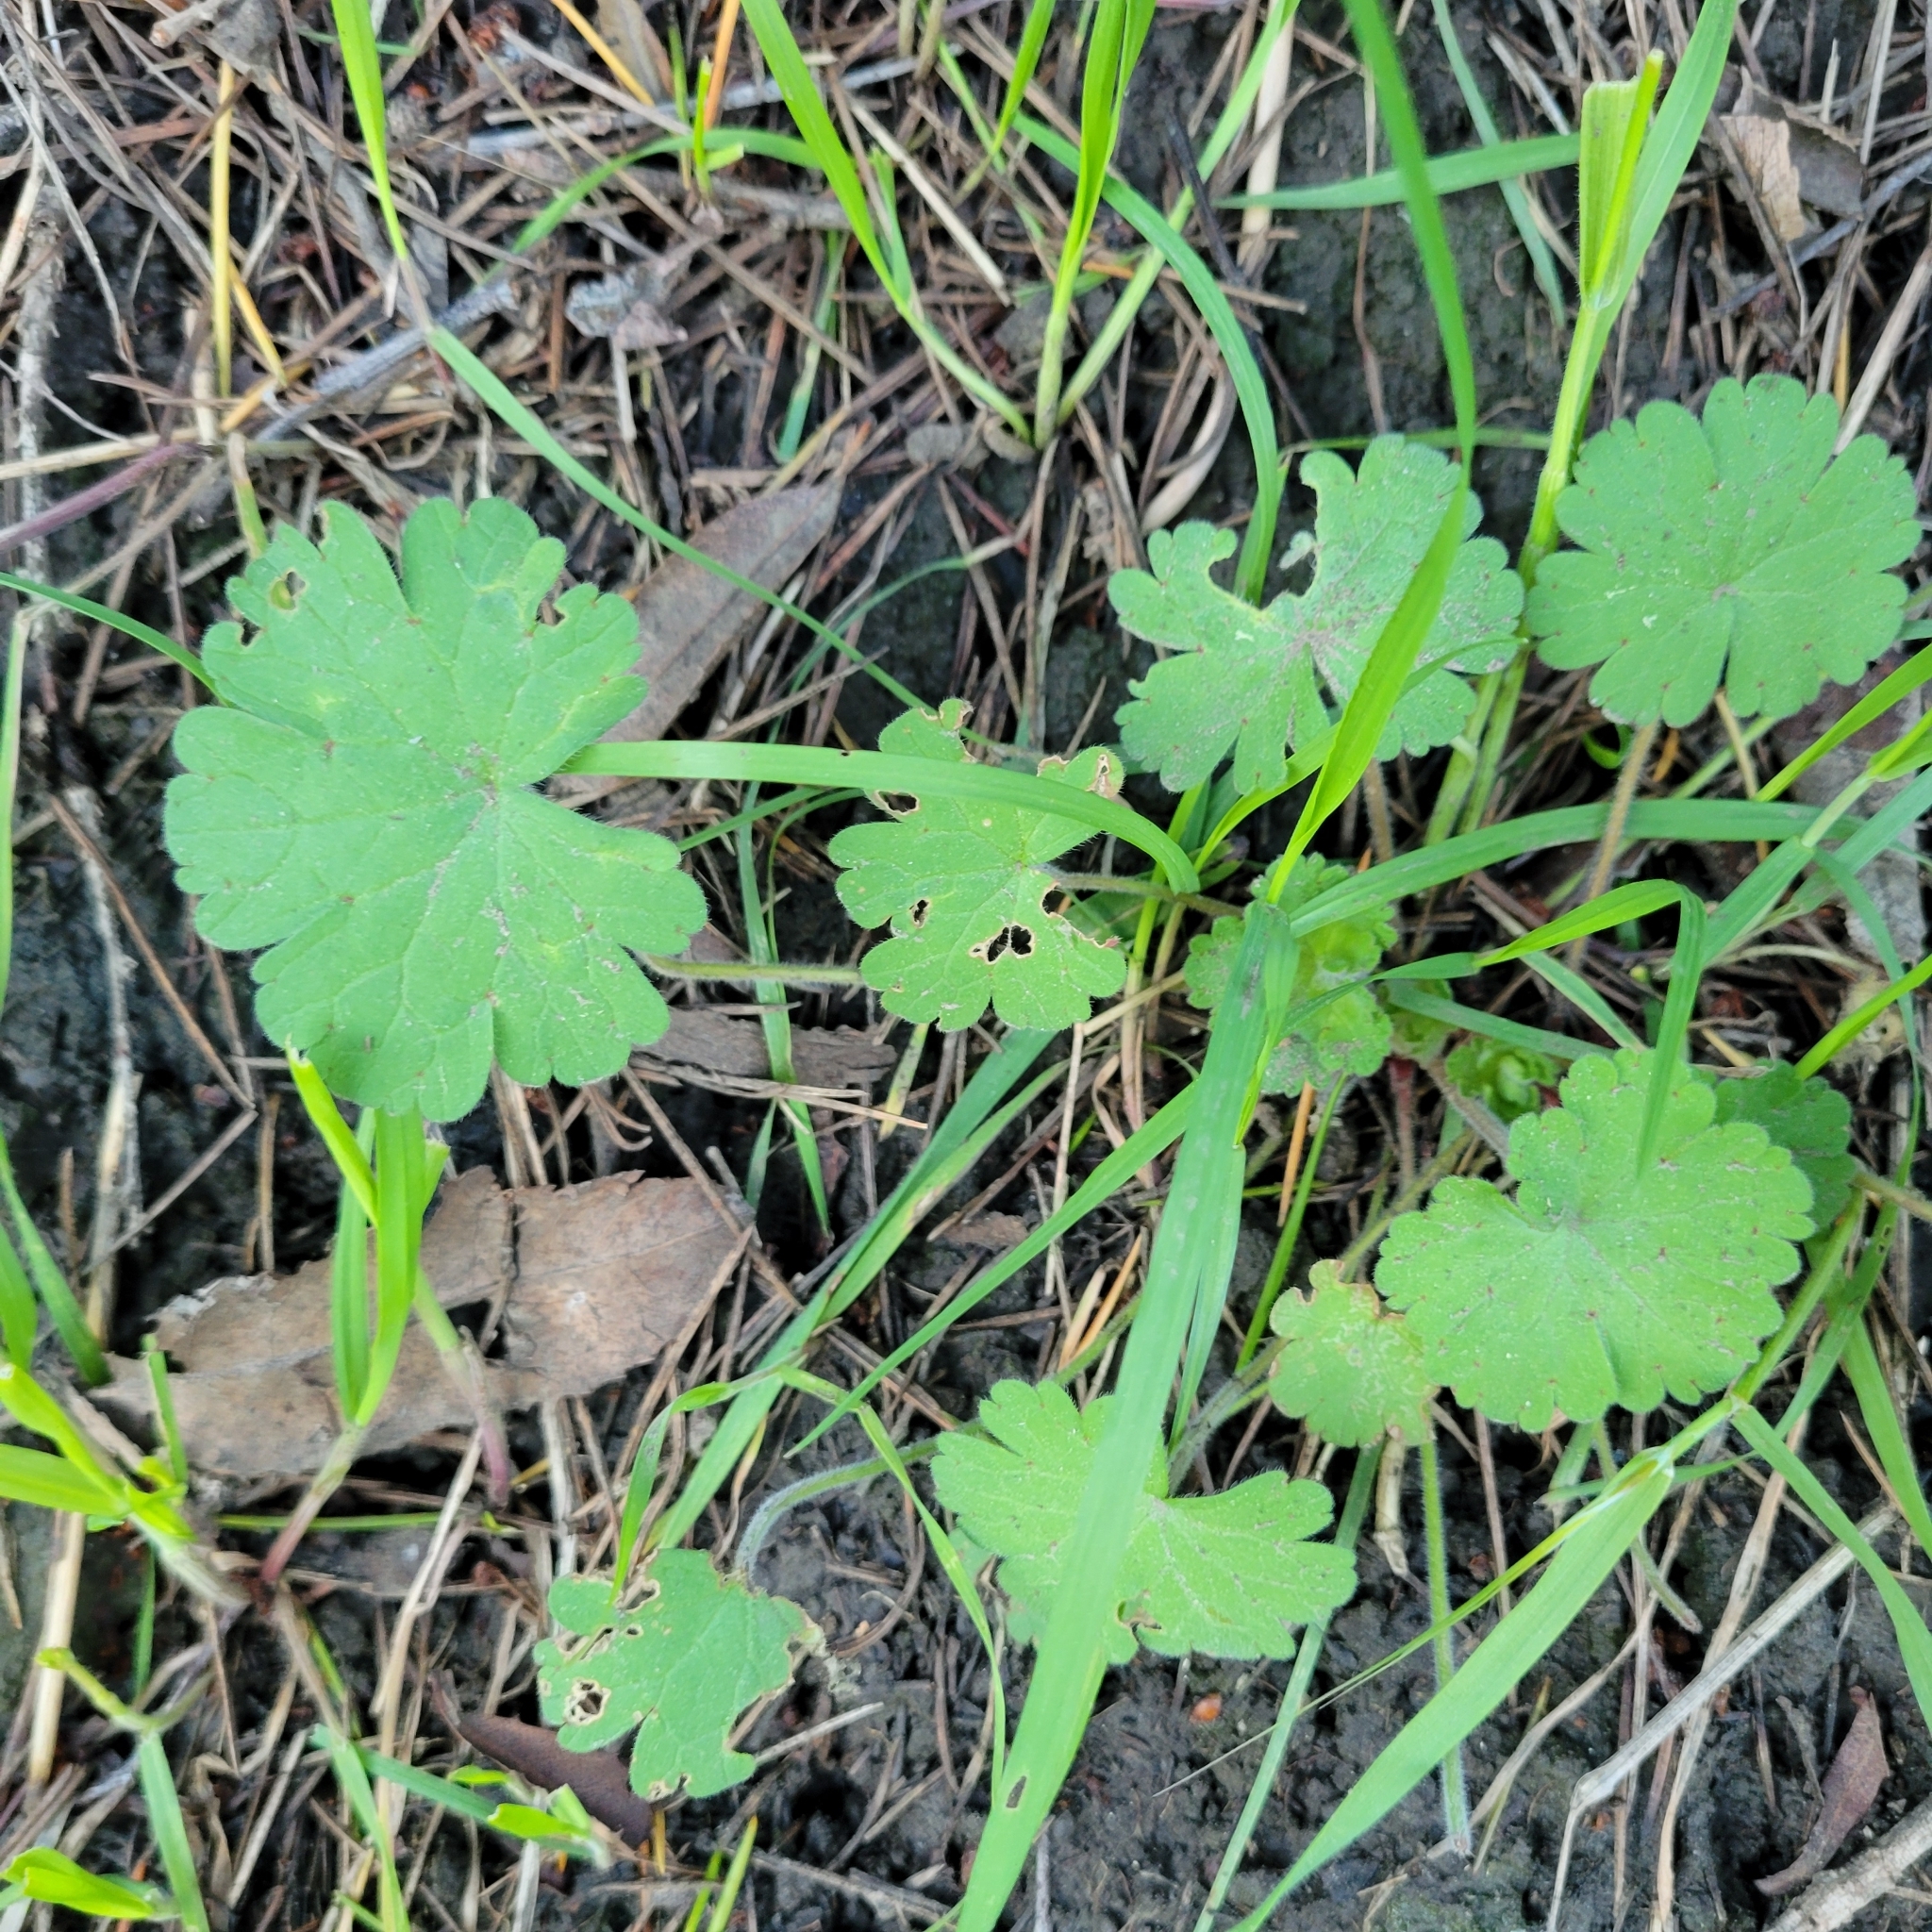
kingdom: Plantae
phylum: Tracheophyta
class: Magnoliopsida
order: Geraniales
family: Geraniaceae
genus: Geranium
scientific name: Geranium
